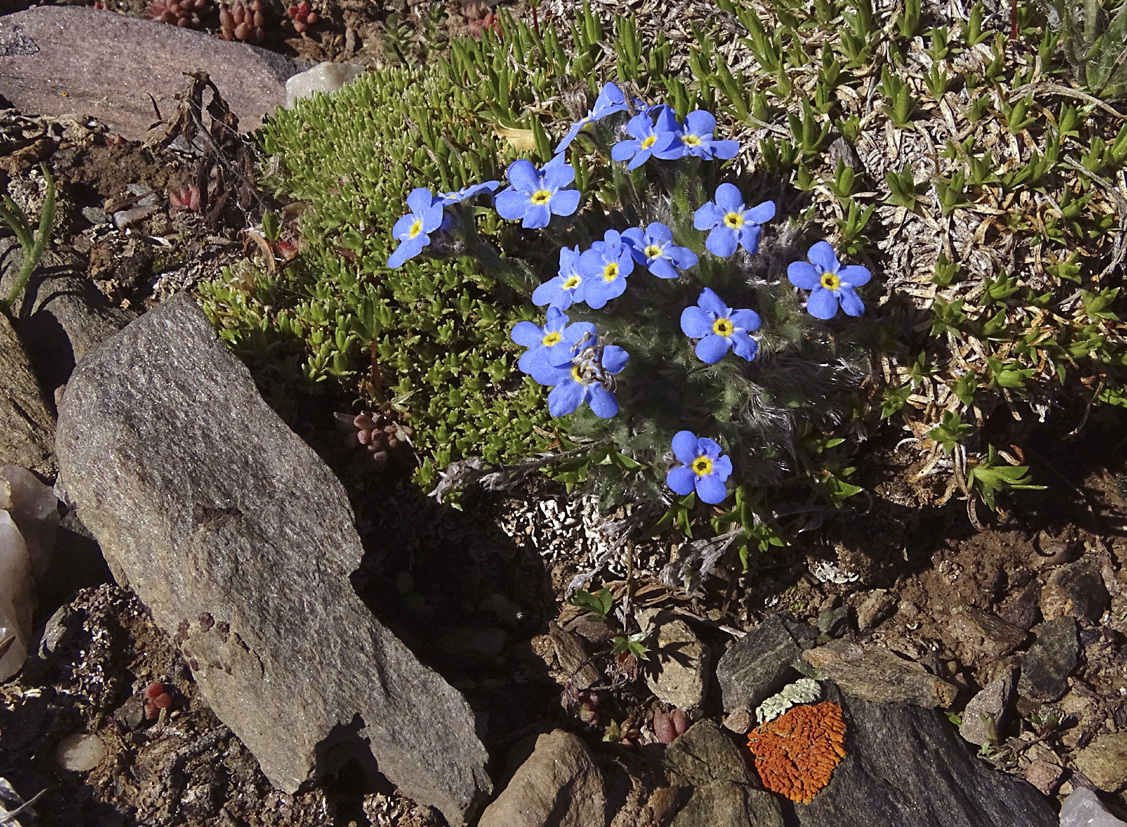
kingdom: Plantae
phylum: Tracheophyta
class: Magnoliopsida
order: Boraginales
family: Boraginaceae
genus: Eritrichium
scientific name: Eritrichium argenteum
